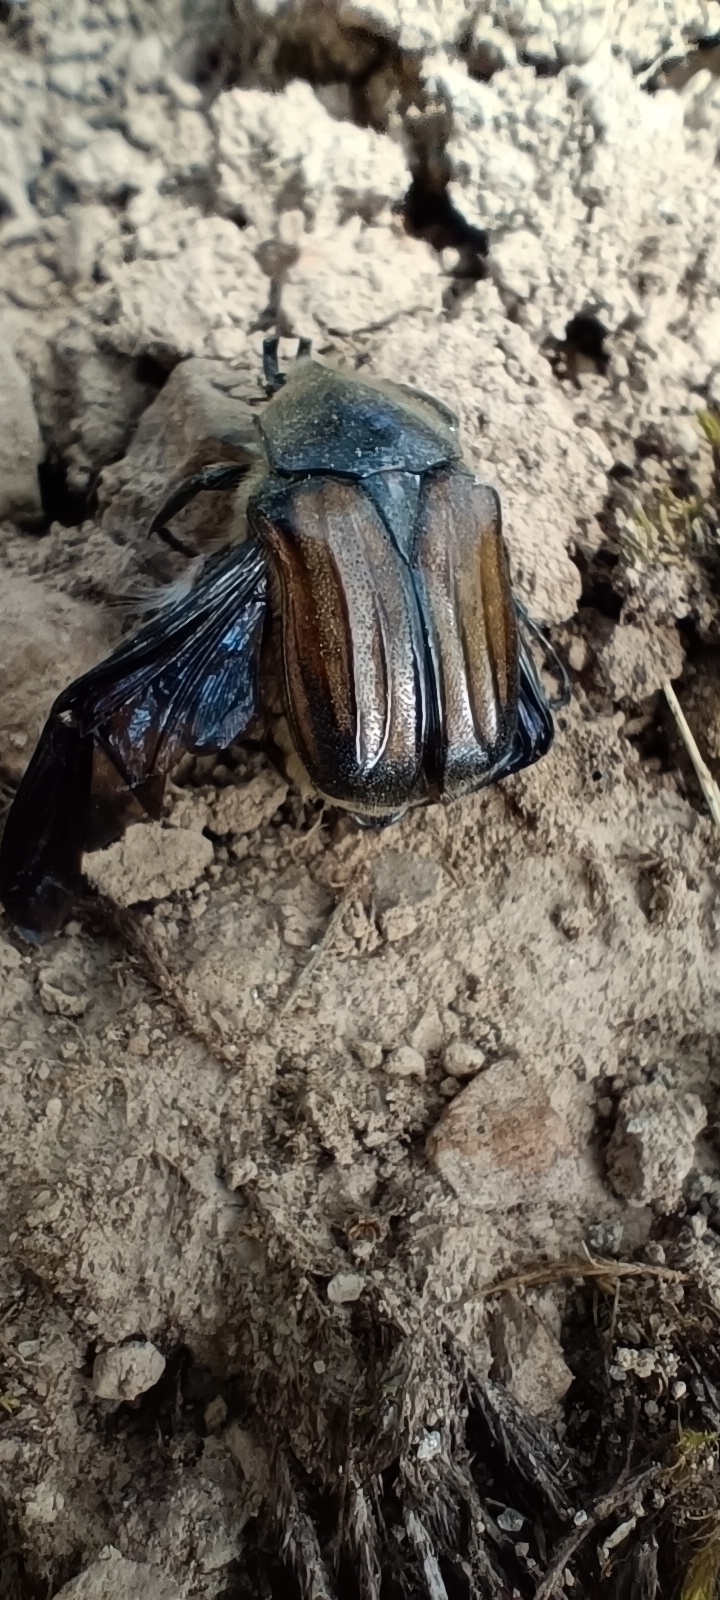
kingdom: Animalia
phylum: Arthropoda
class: Insecta
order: Coleoptera
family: Scarabaeidae
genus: Ischnoscelis
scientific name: Ischnoscelis hoepfneri
